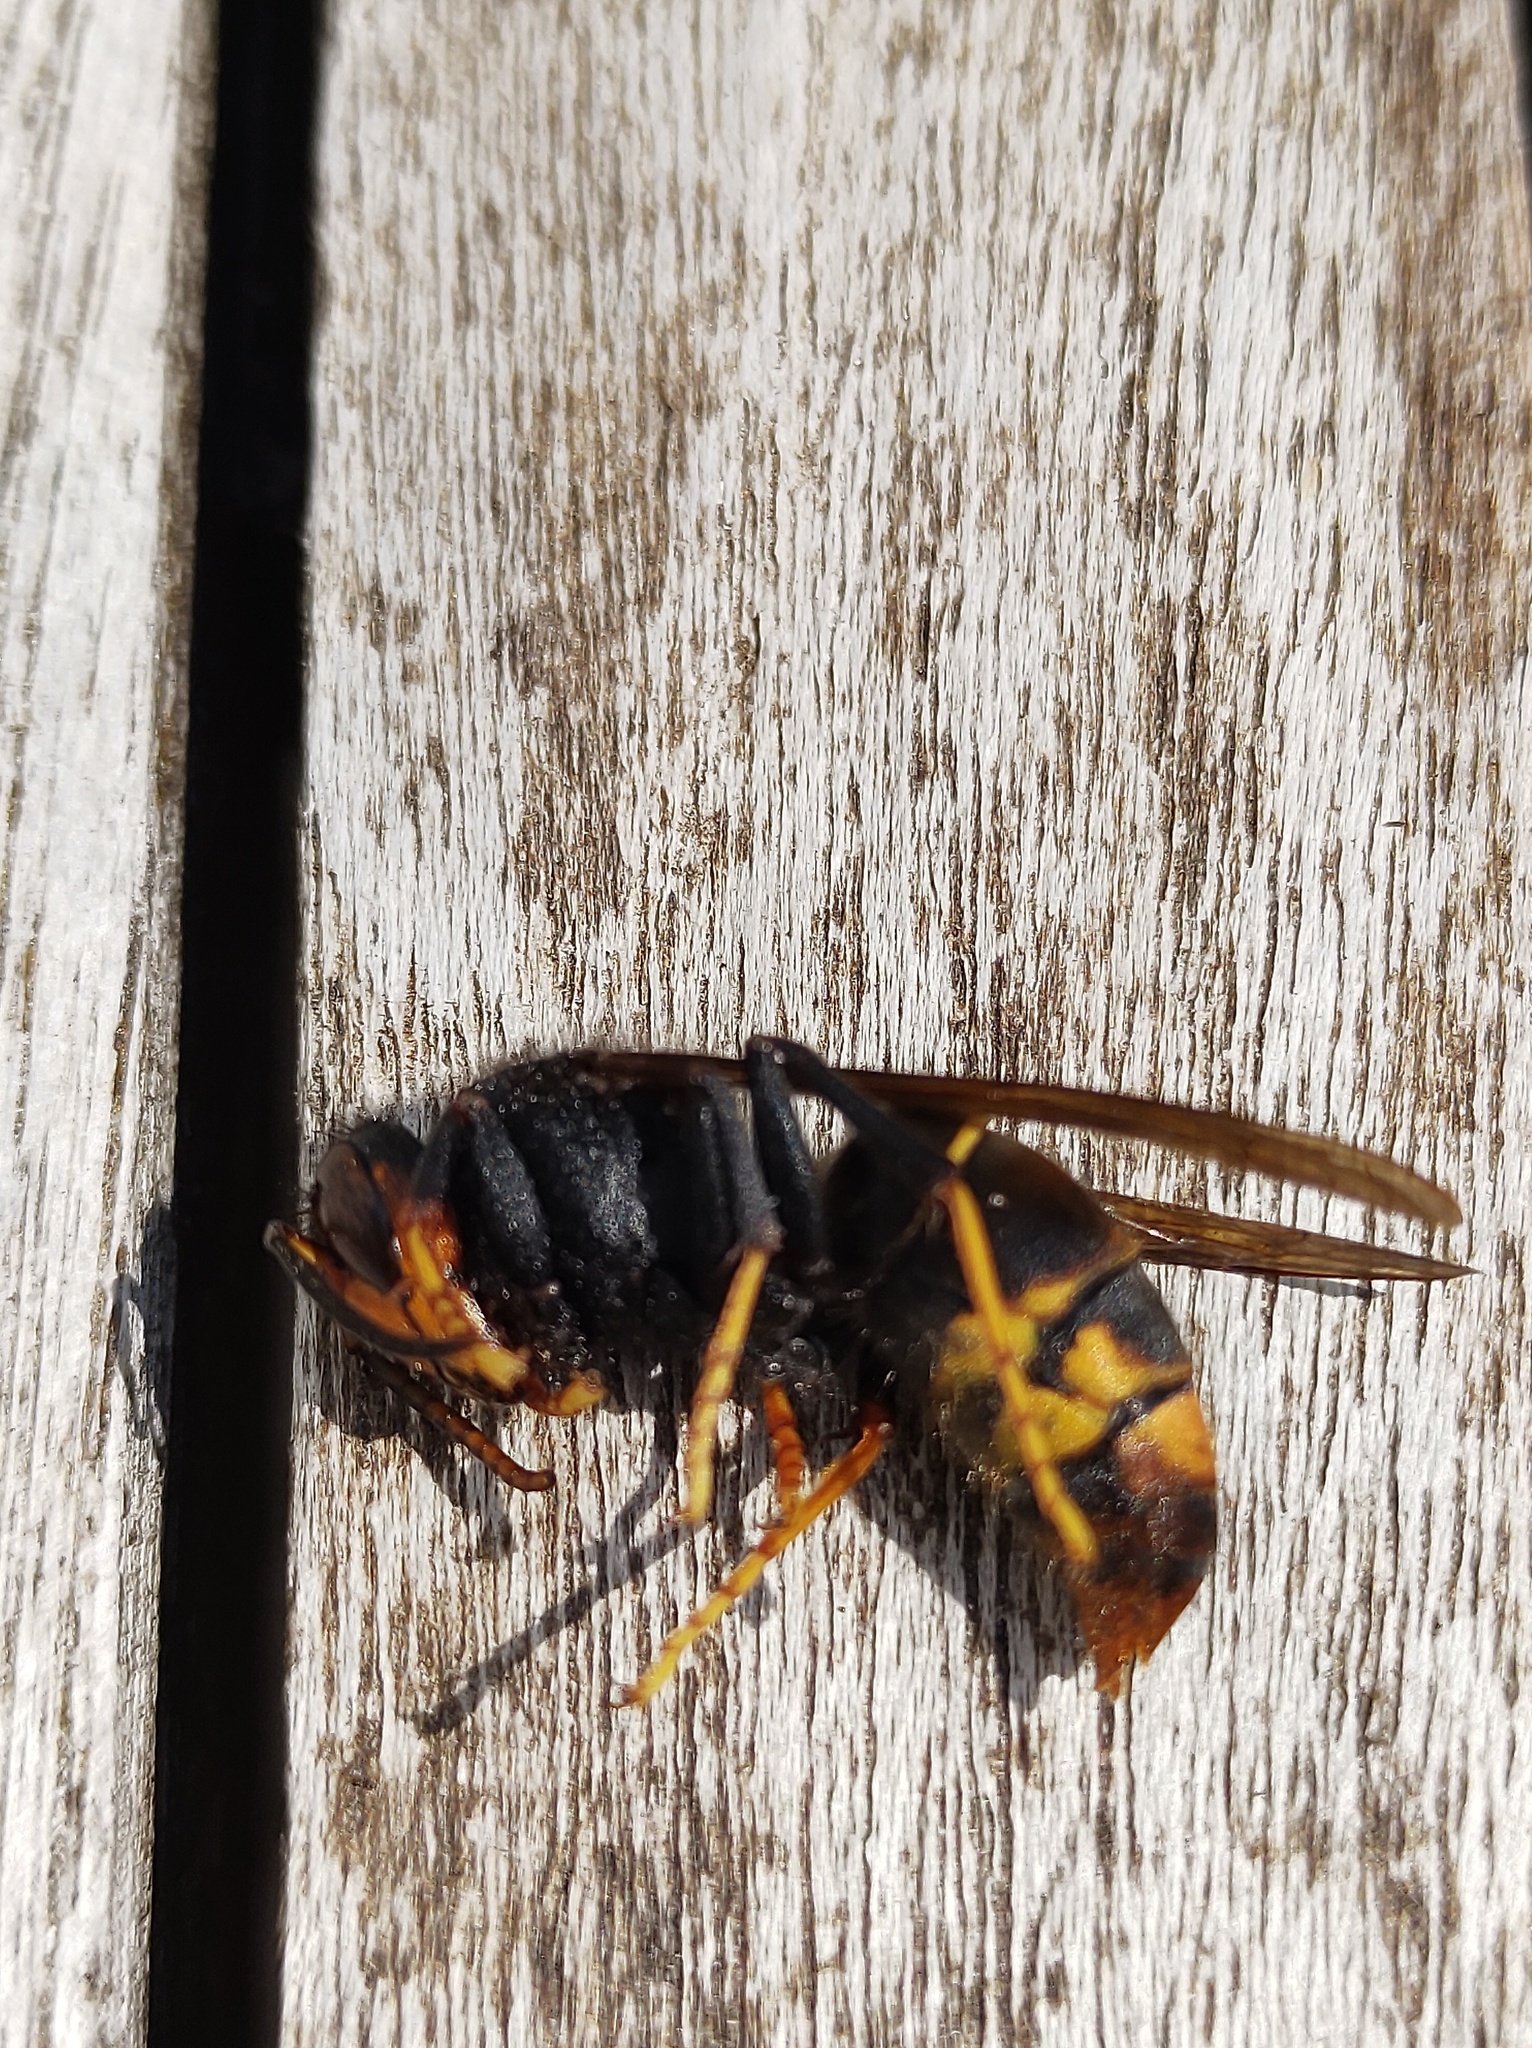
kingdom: Animalia
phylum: Arthropoda
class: Insecta
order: Hymenoptera
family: Vespidae
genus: Vespa
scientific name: Vespa velutina
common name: Asian hornet
